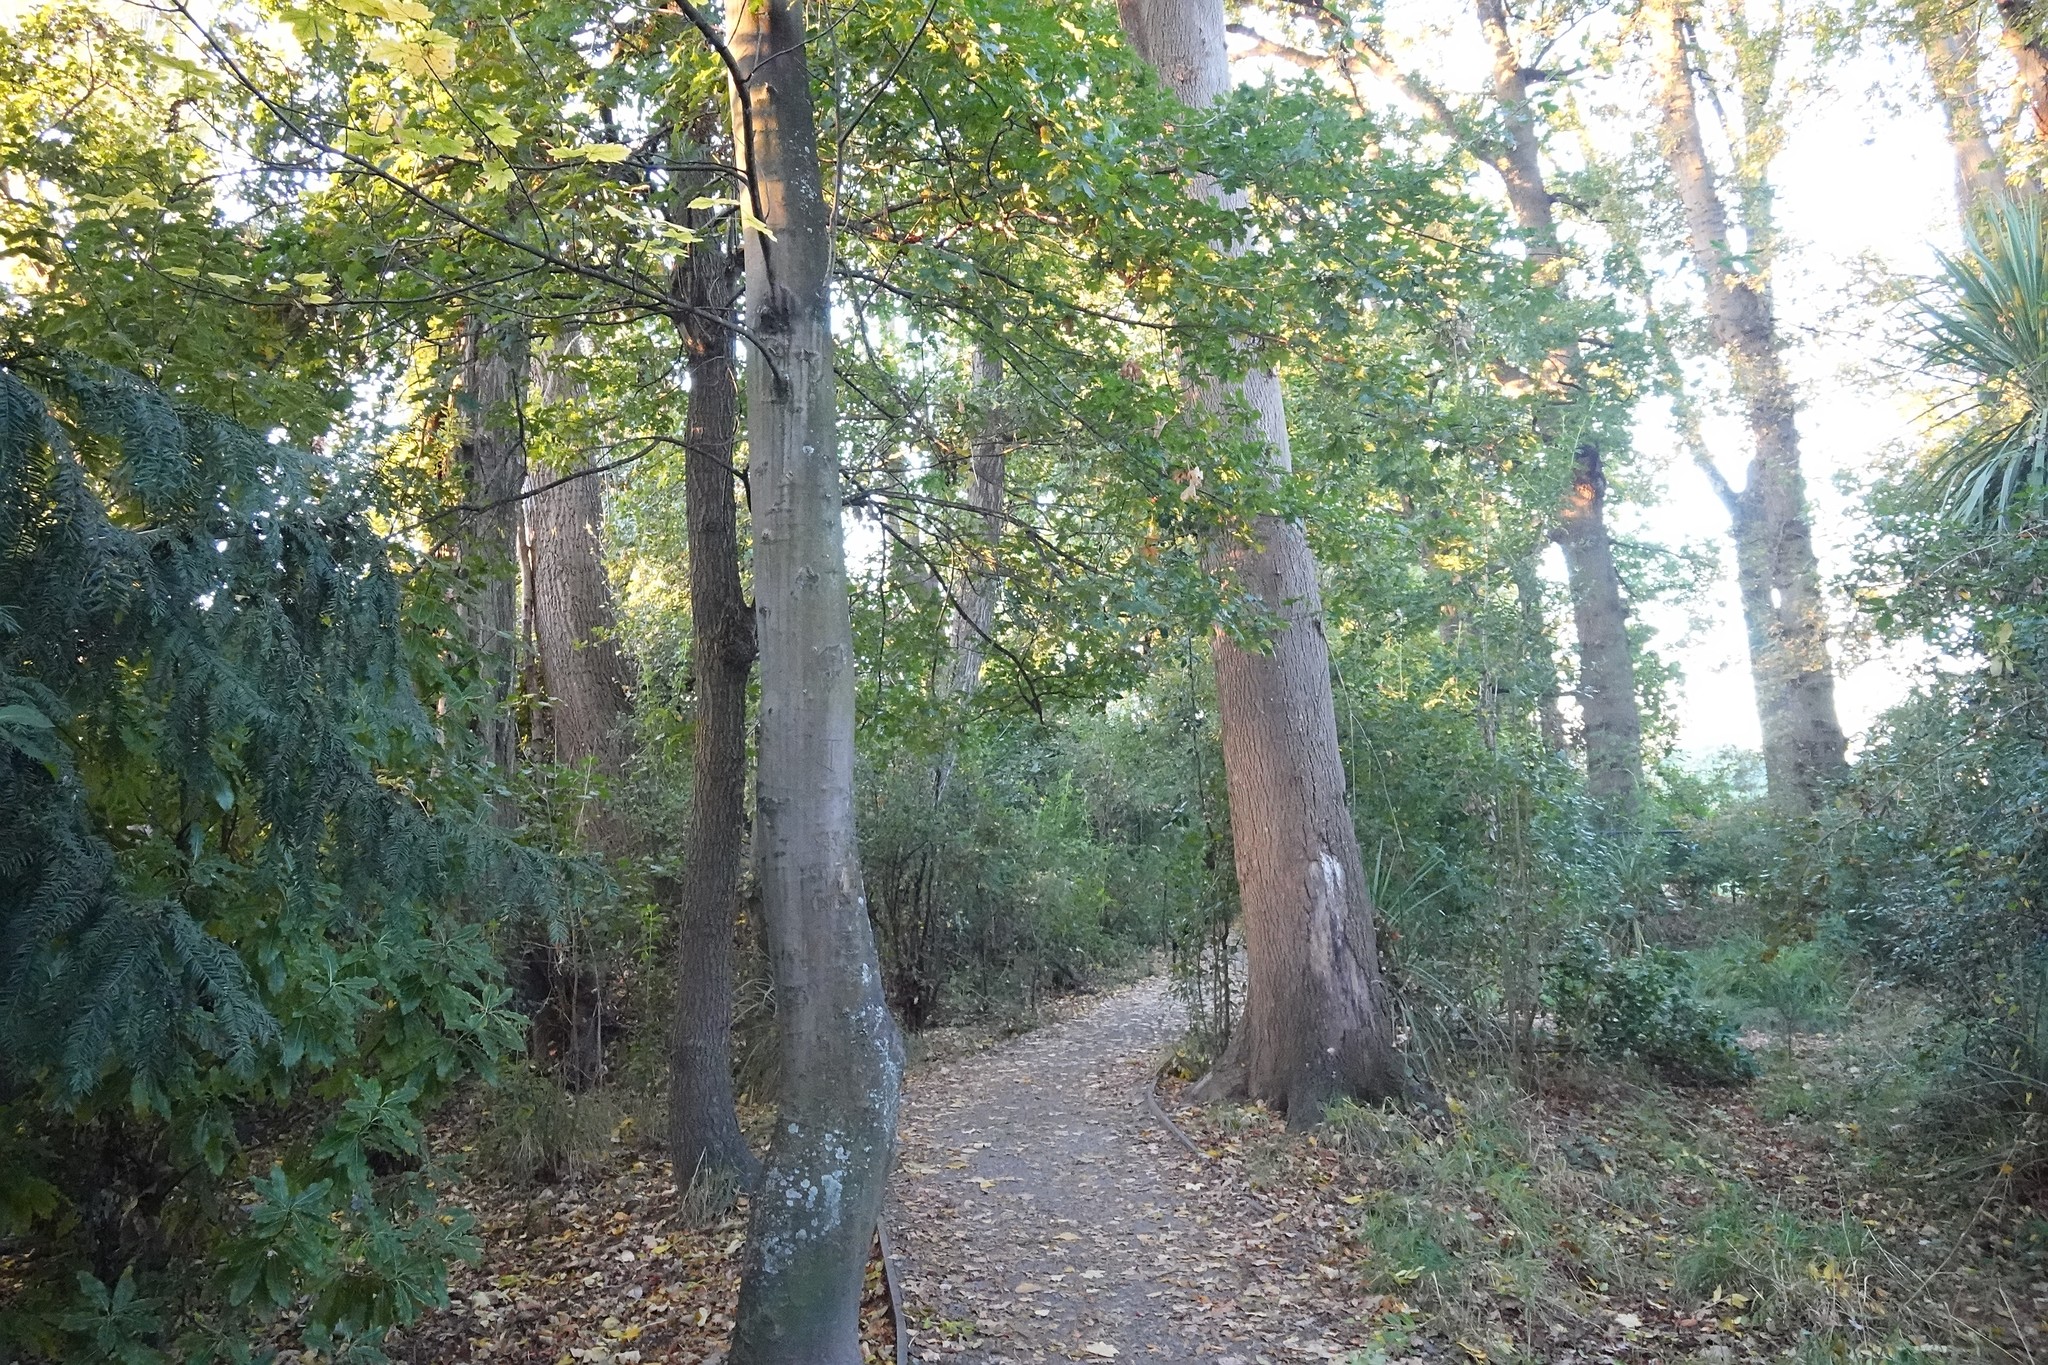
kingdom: Plantae
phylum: Tracheophyta
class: Magnoliopsida
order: Sapindales
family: Sapindaceae
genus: Acer
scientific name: Acer pseudoplatanus
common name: Sycamore
